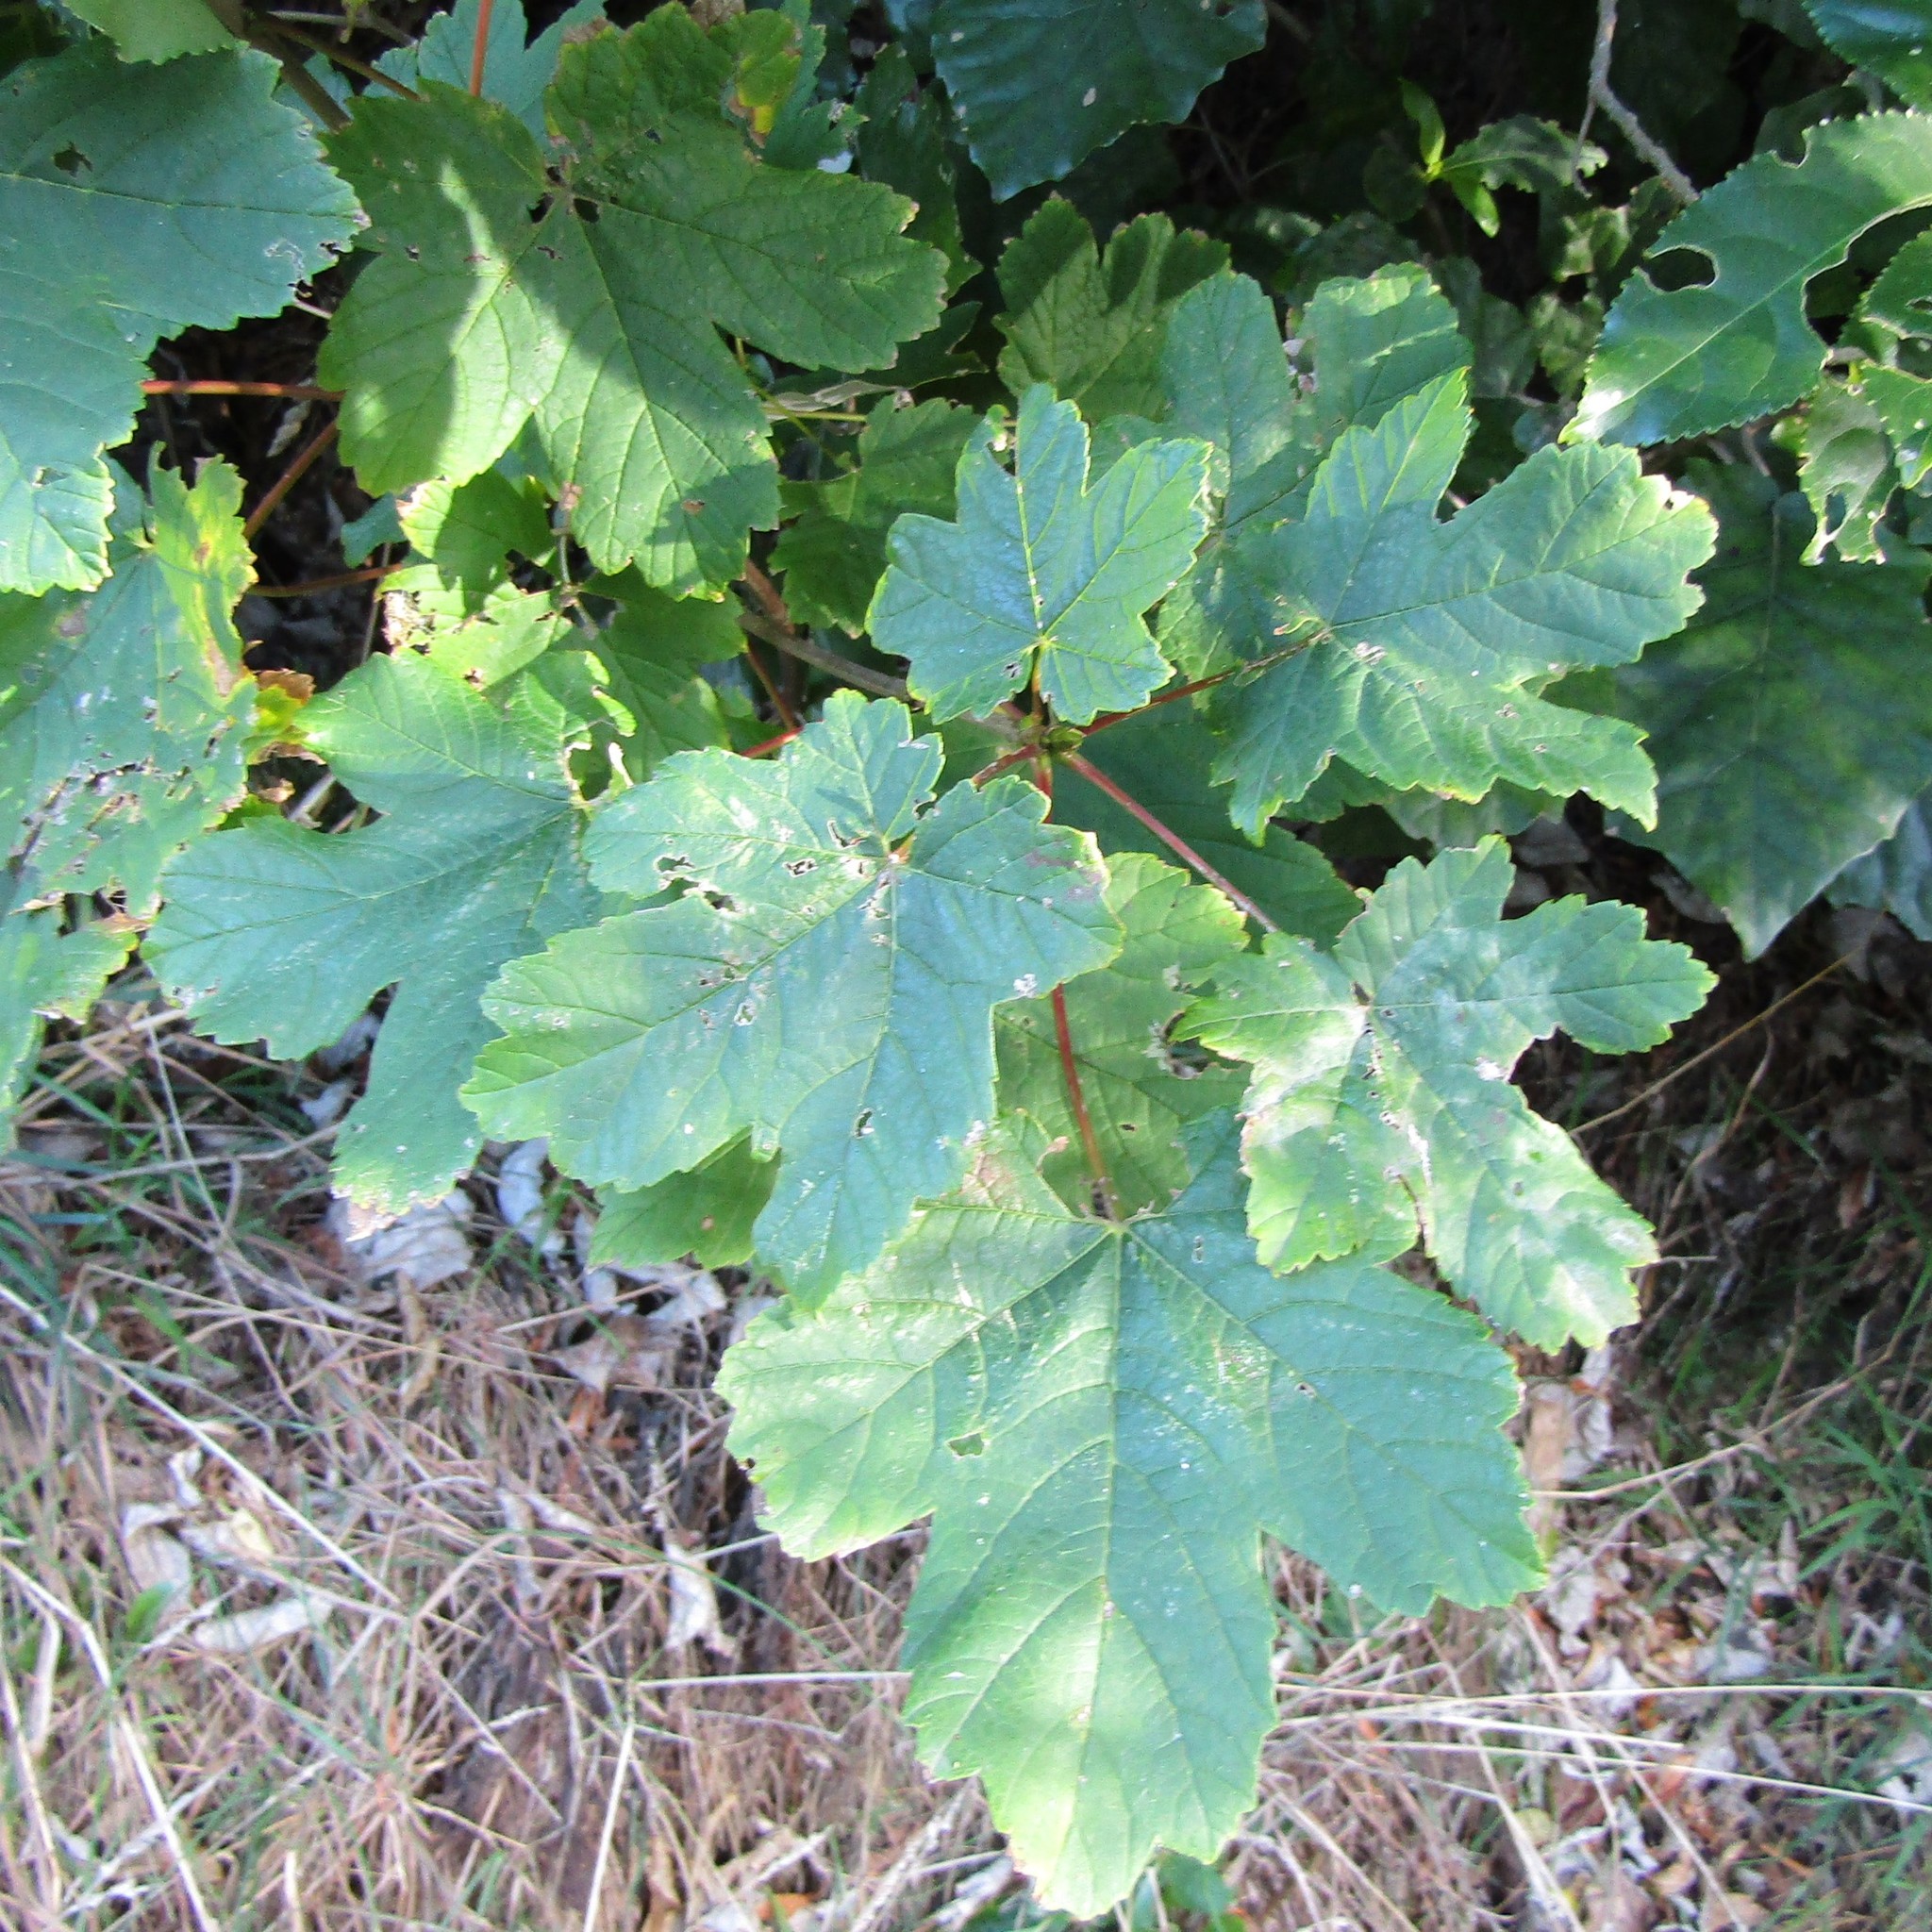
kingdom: Plantae
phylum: Tracheophyta
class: Magnoliopsida
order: Sapindales
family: Sapindaceae
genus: Acer
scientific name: Acer pseudoplatanus
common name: Sycamore
